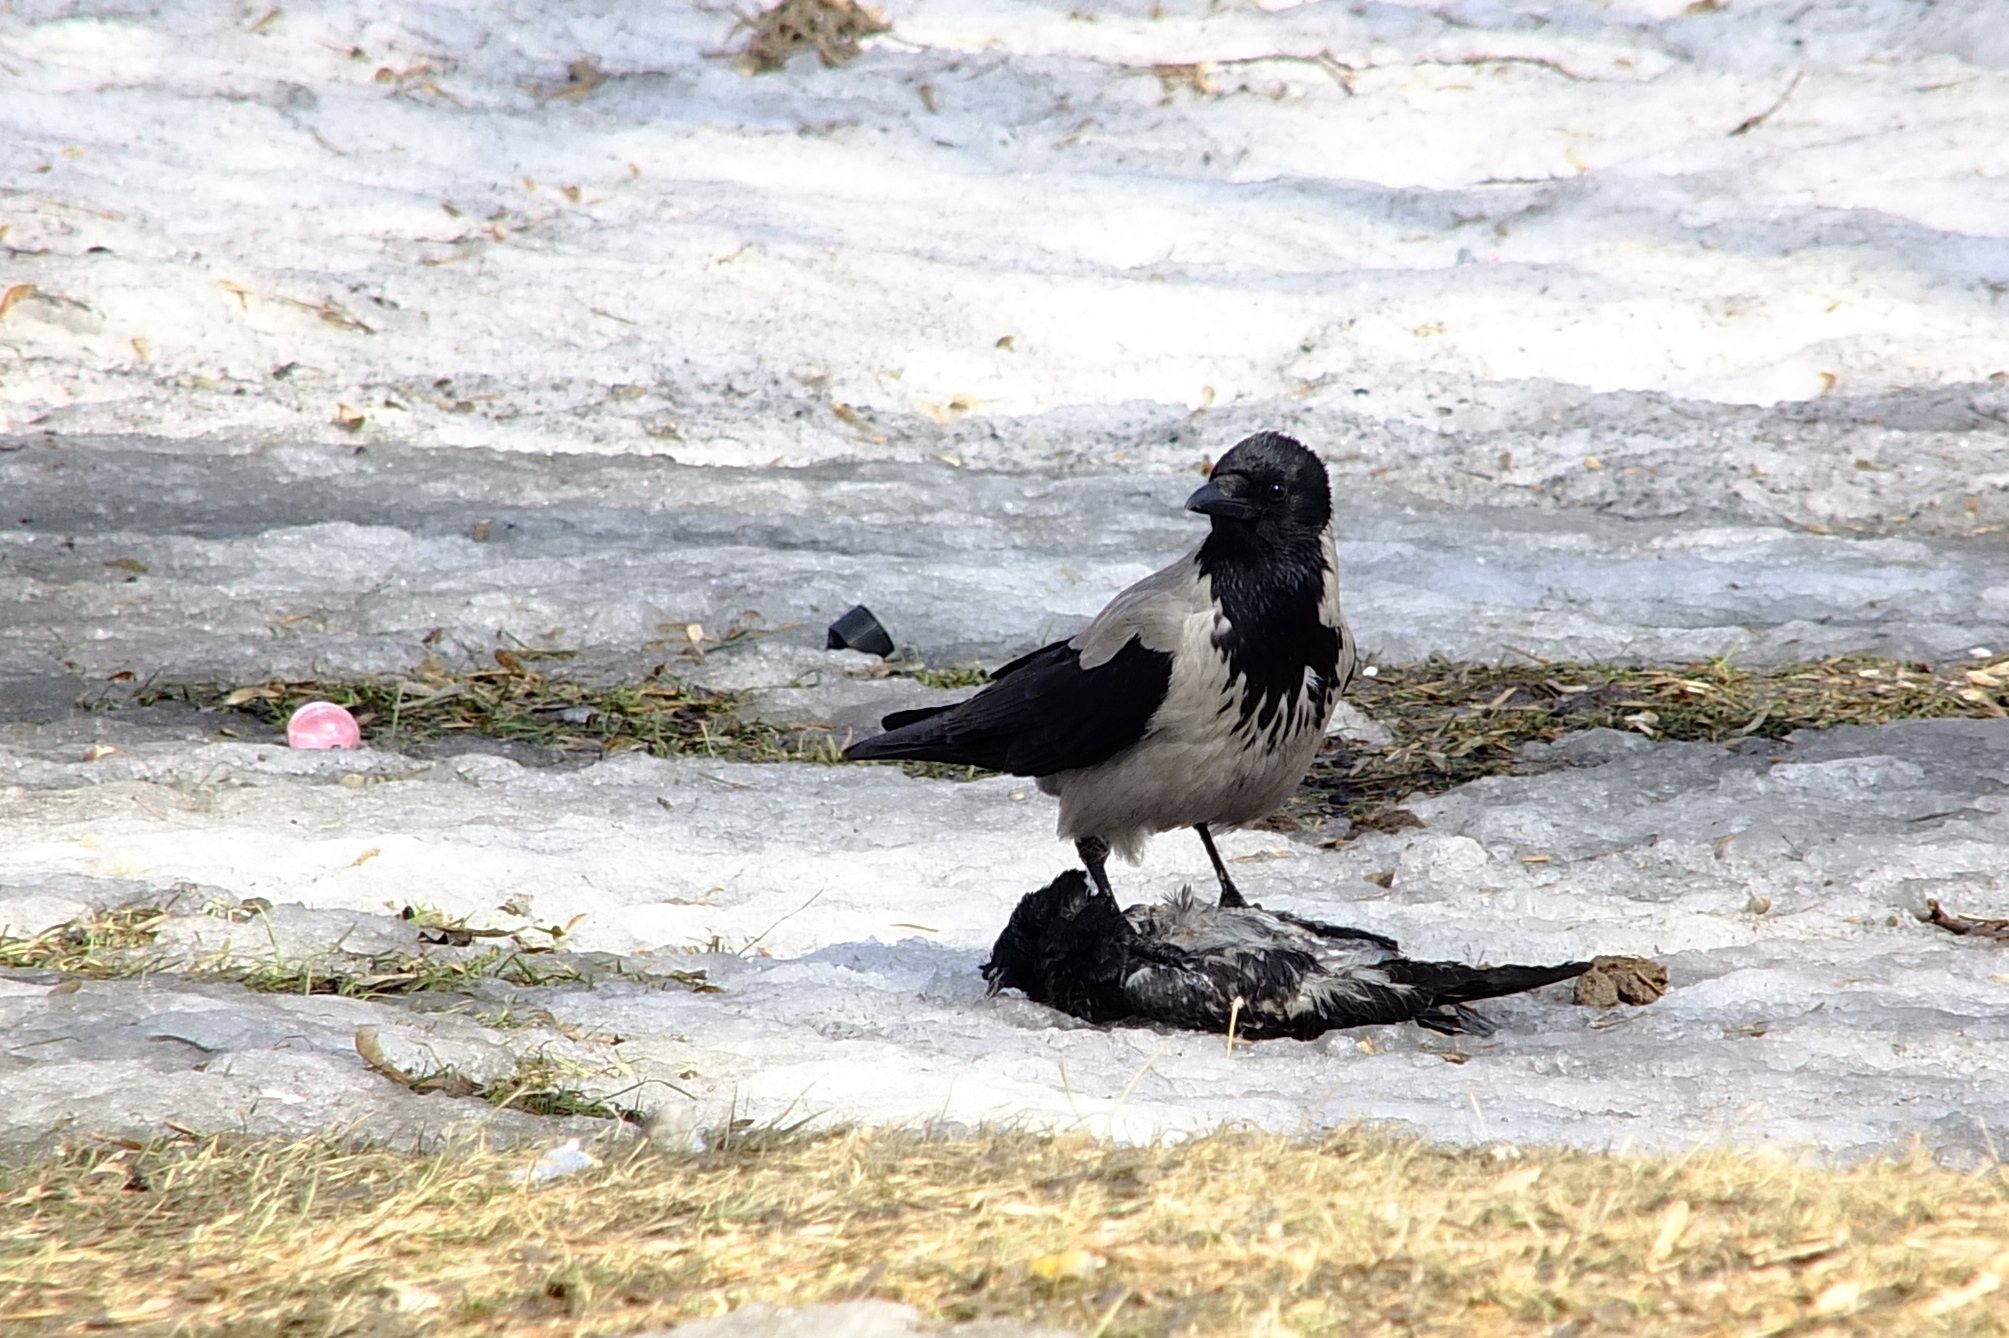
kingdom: Animalia
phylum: Chordata
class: Aves
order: Passeriformes
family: Corvidae
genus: Corvus
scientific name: Corvus cornix
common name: Hooded crow
